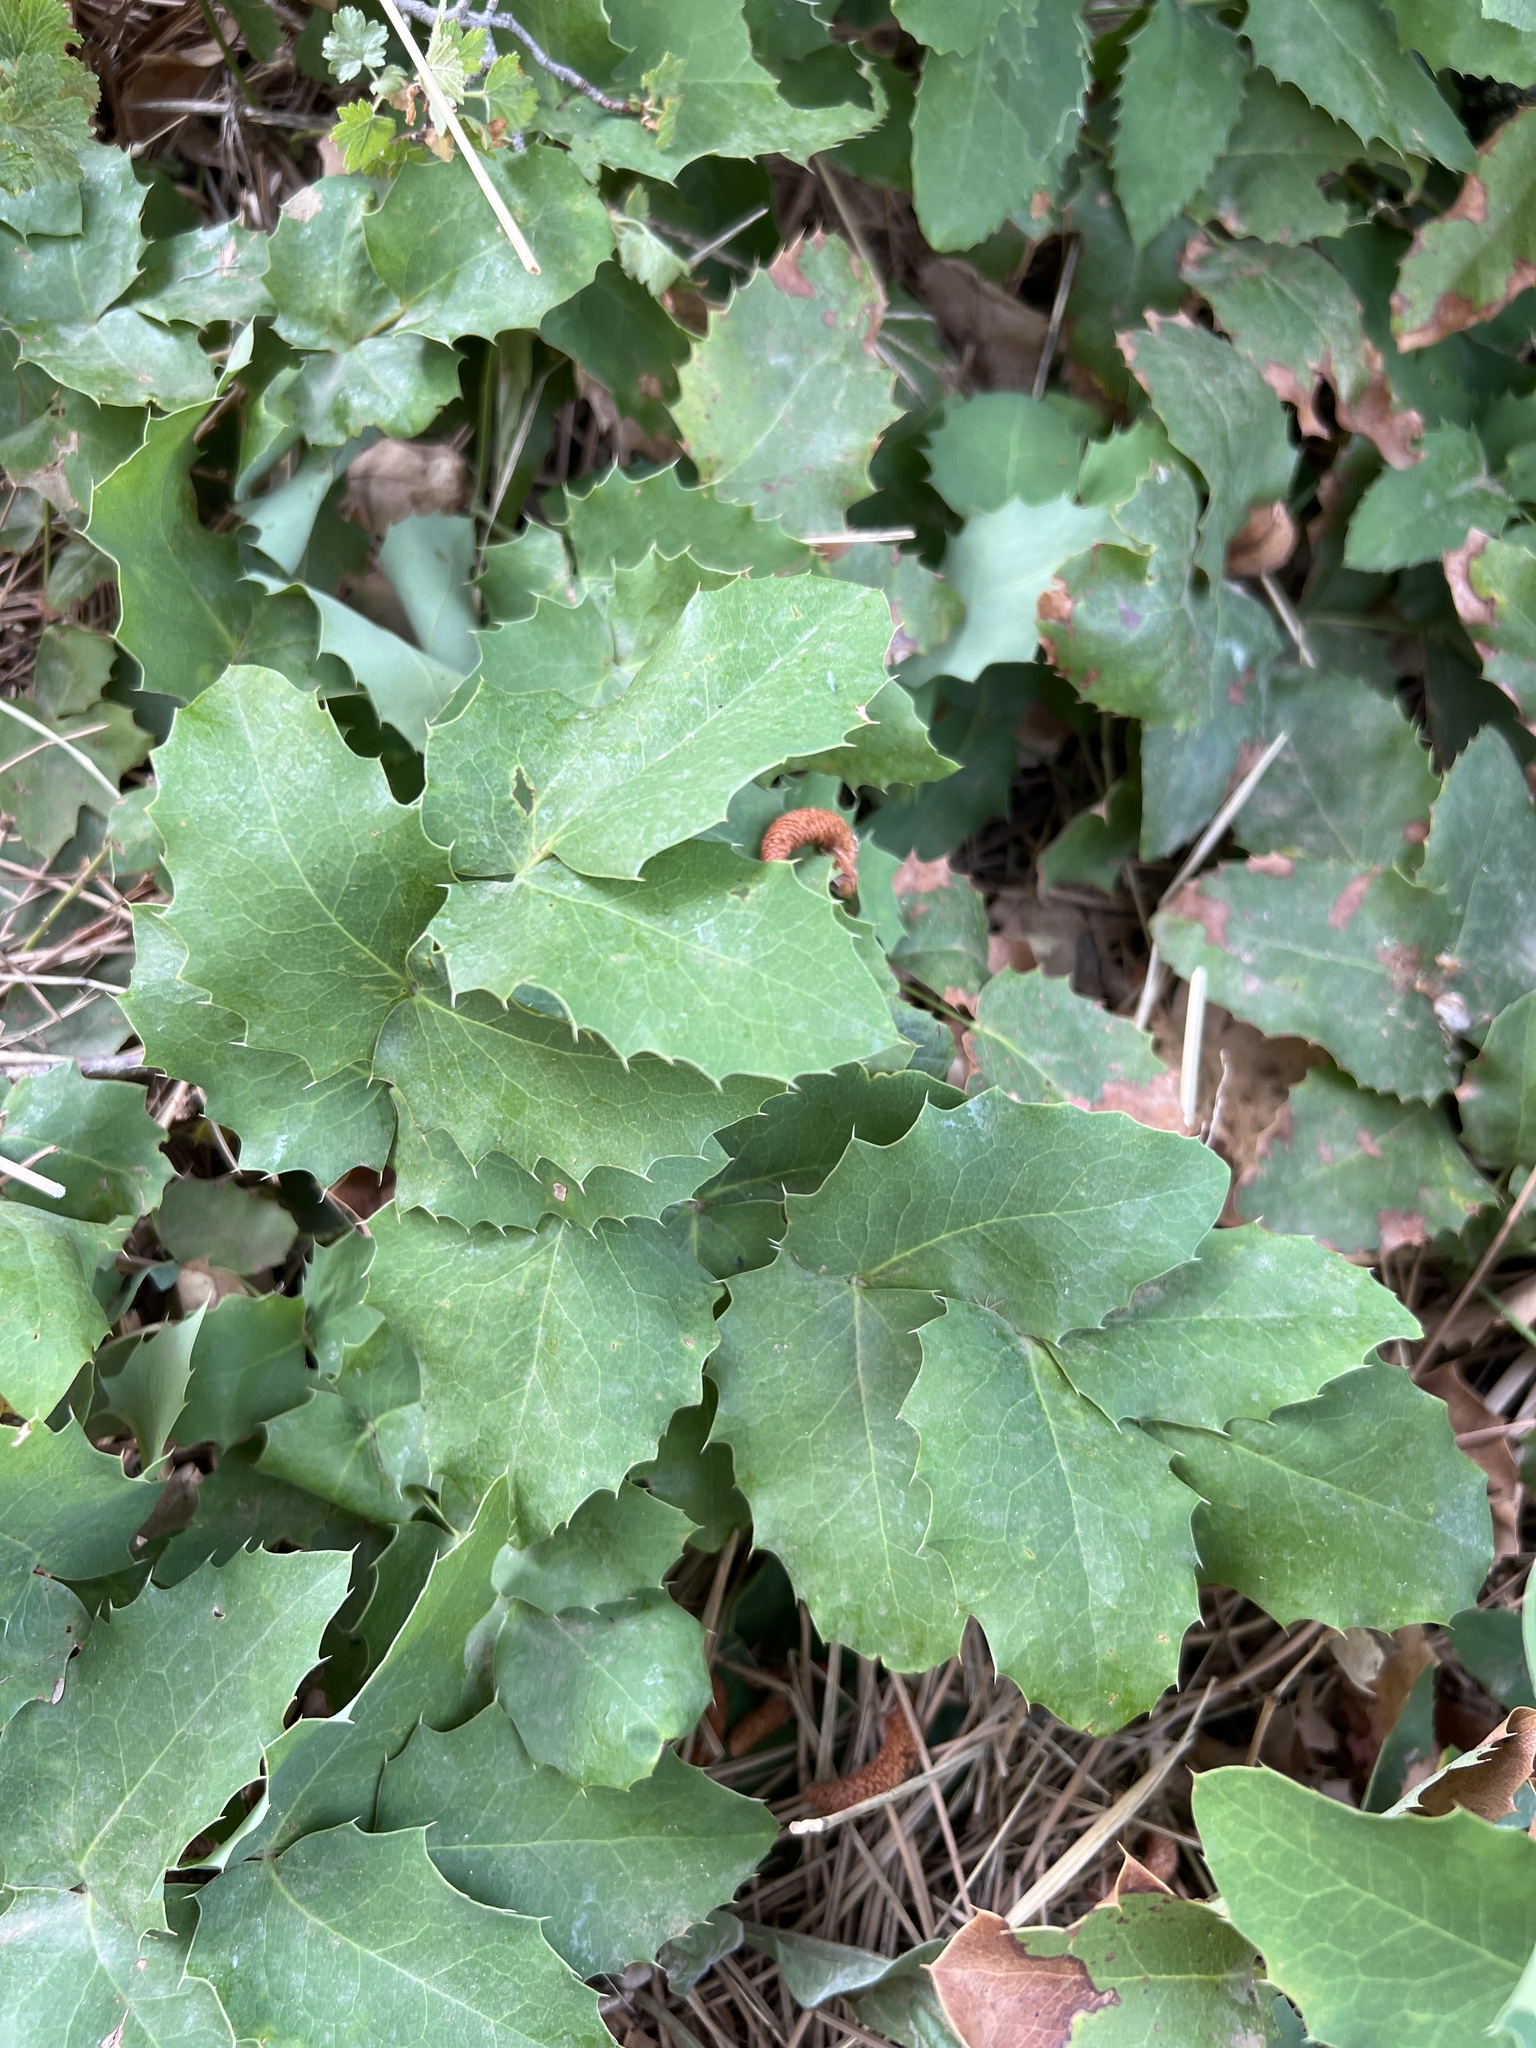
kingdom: Plantae
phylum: Tracheophyta
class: Magnoliopsida
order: Ranunculales
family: Berberidaceae
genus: Mahonia
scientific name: Mahonia repens
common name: Creeping oregon-grape
